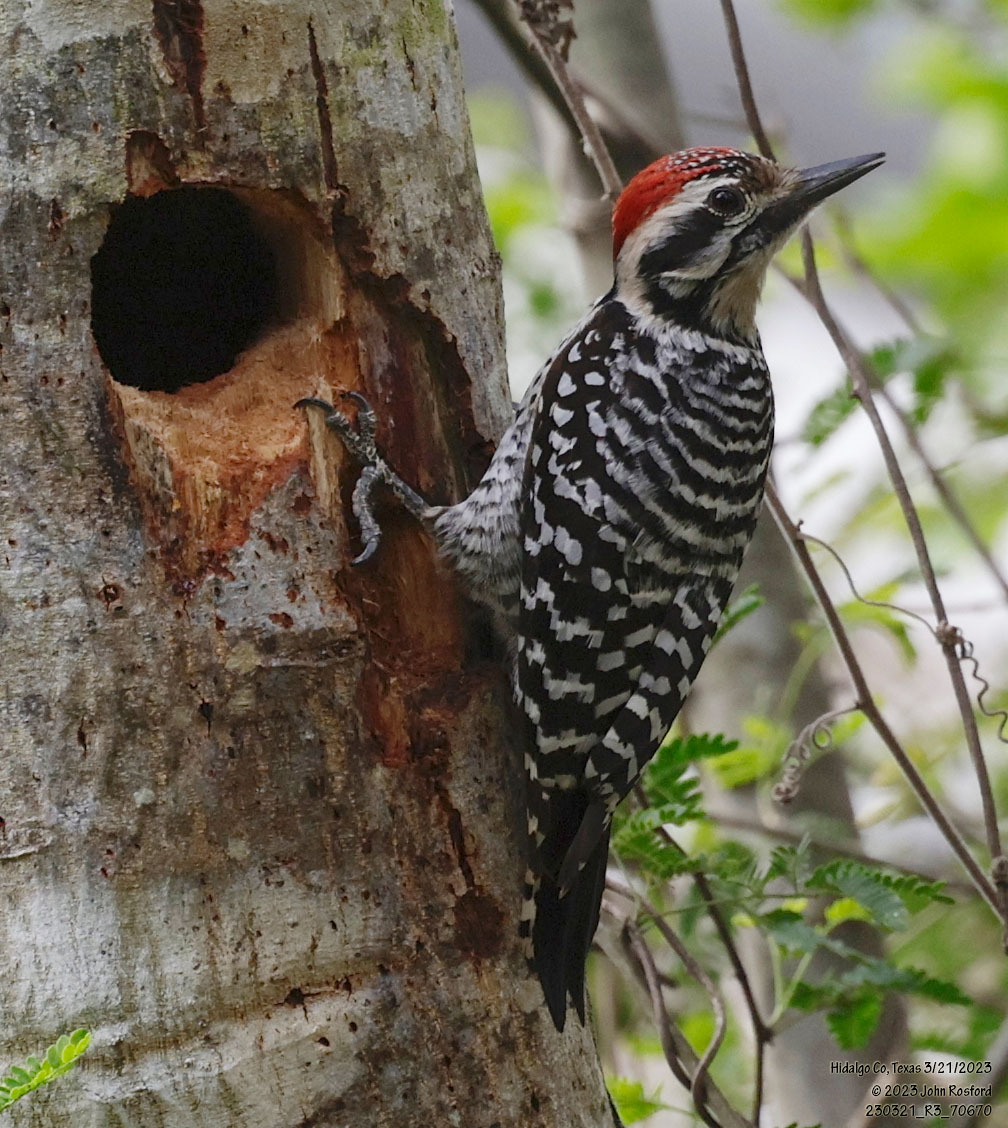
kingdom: Animalia
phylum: Chordata
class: Aves
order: Piciformes
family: Picidae
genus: Dryobates
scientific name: Dryobates scalaris
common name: Ladder-backed woodpecker
